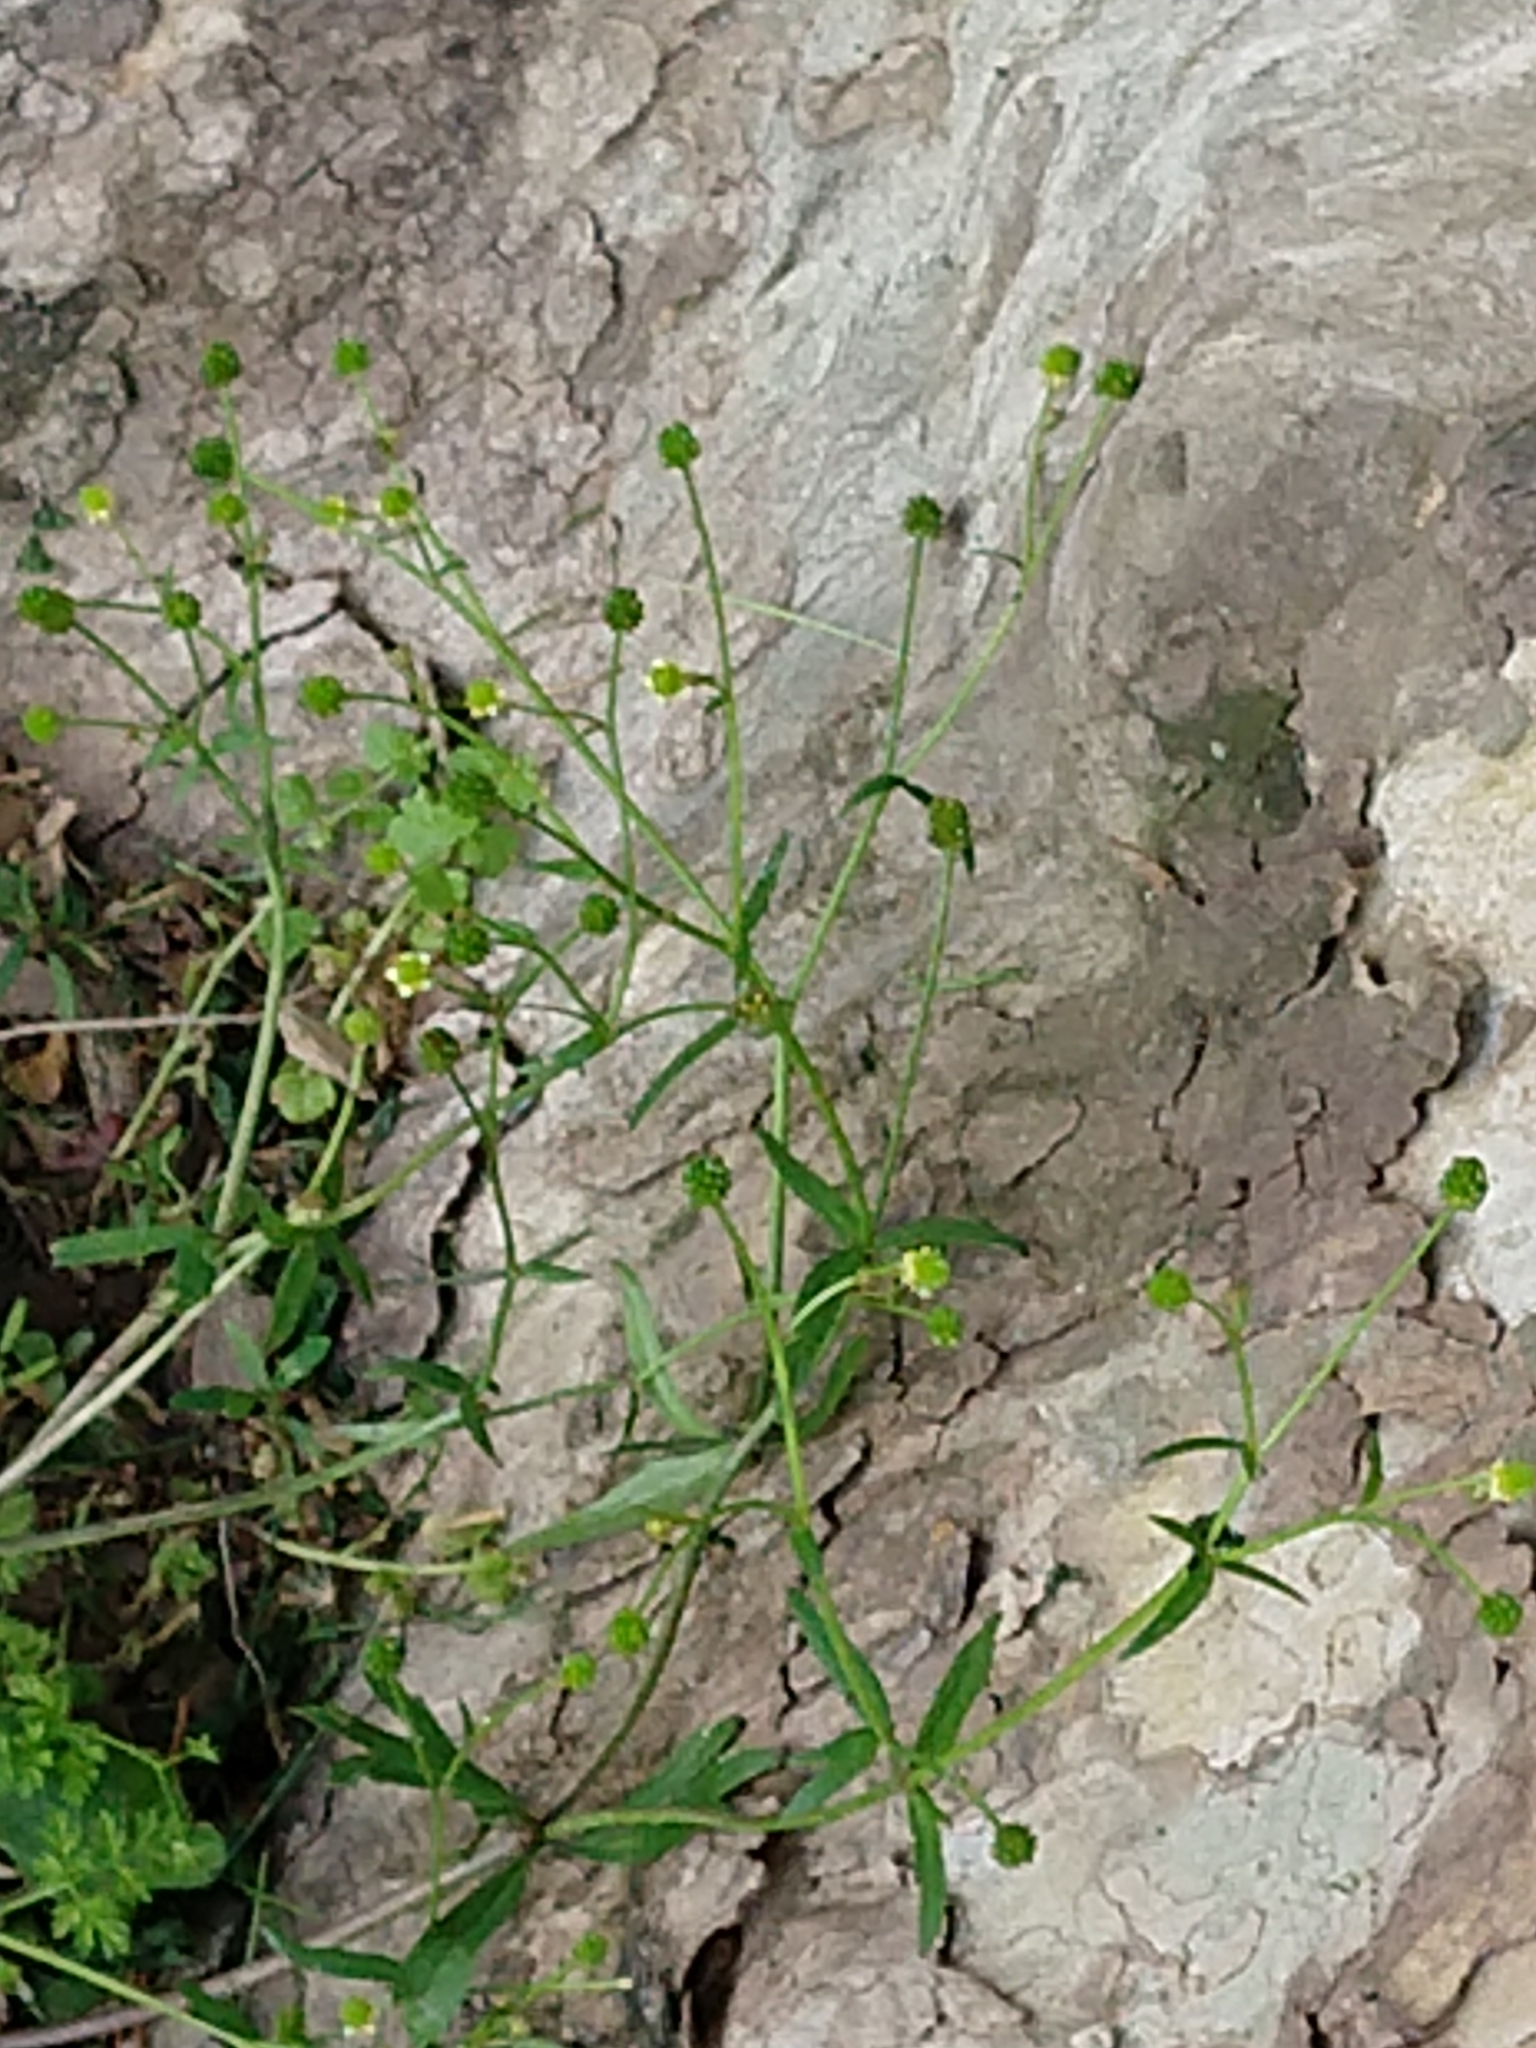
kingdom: Plantae
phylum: Tracheophyta
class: Magnoliopsida
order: Ranunculales
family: Ranunculaceae
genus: Ranunculus
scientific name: Ranunculus abortivus
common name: Early wood buttercup
